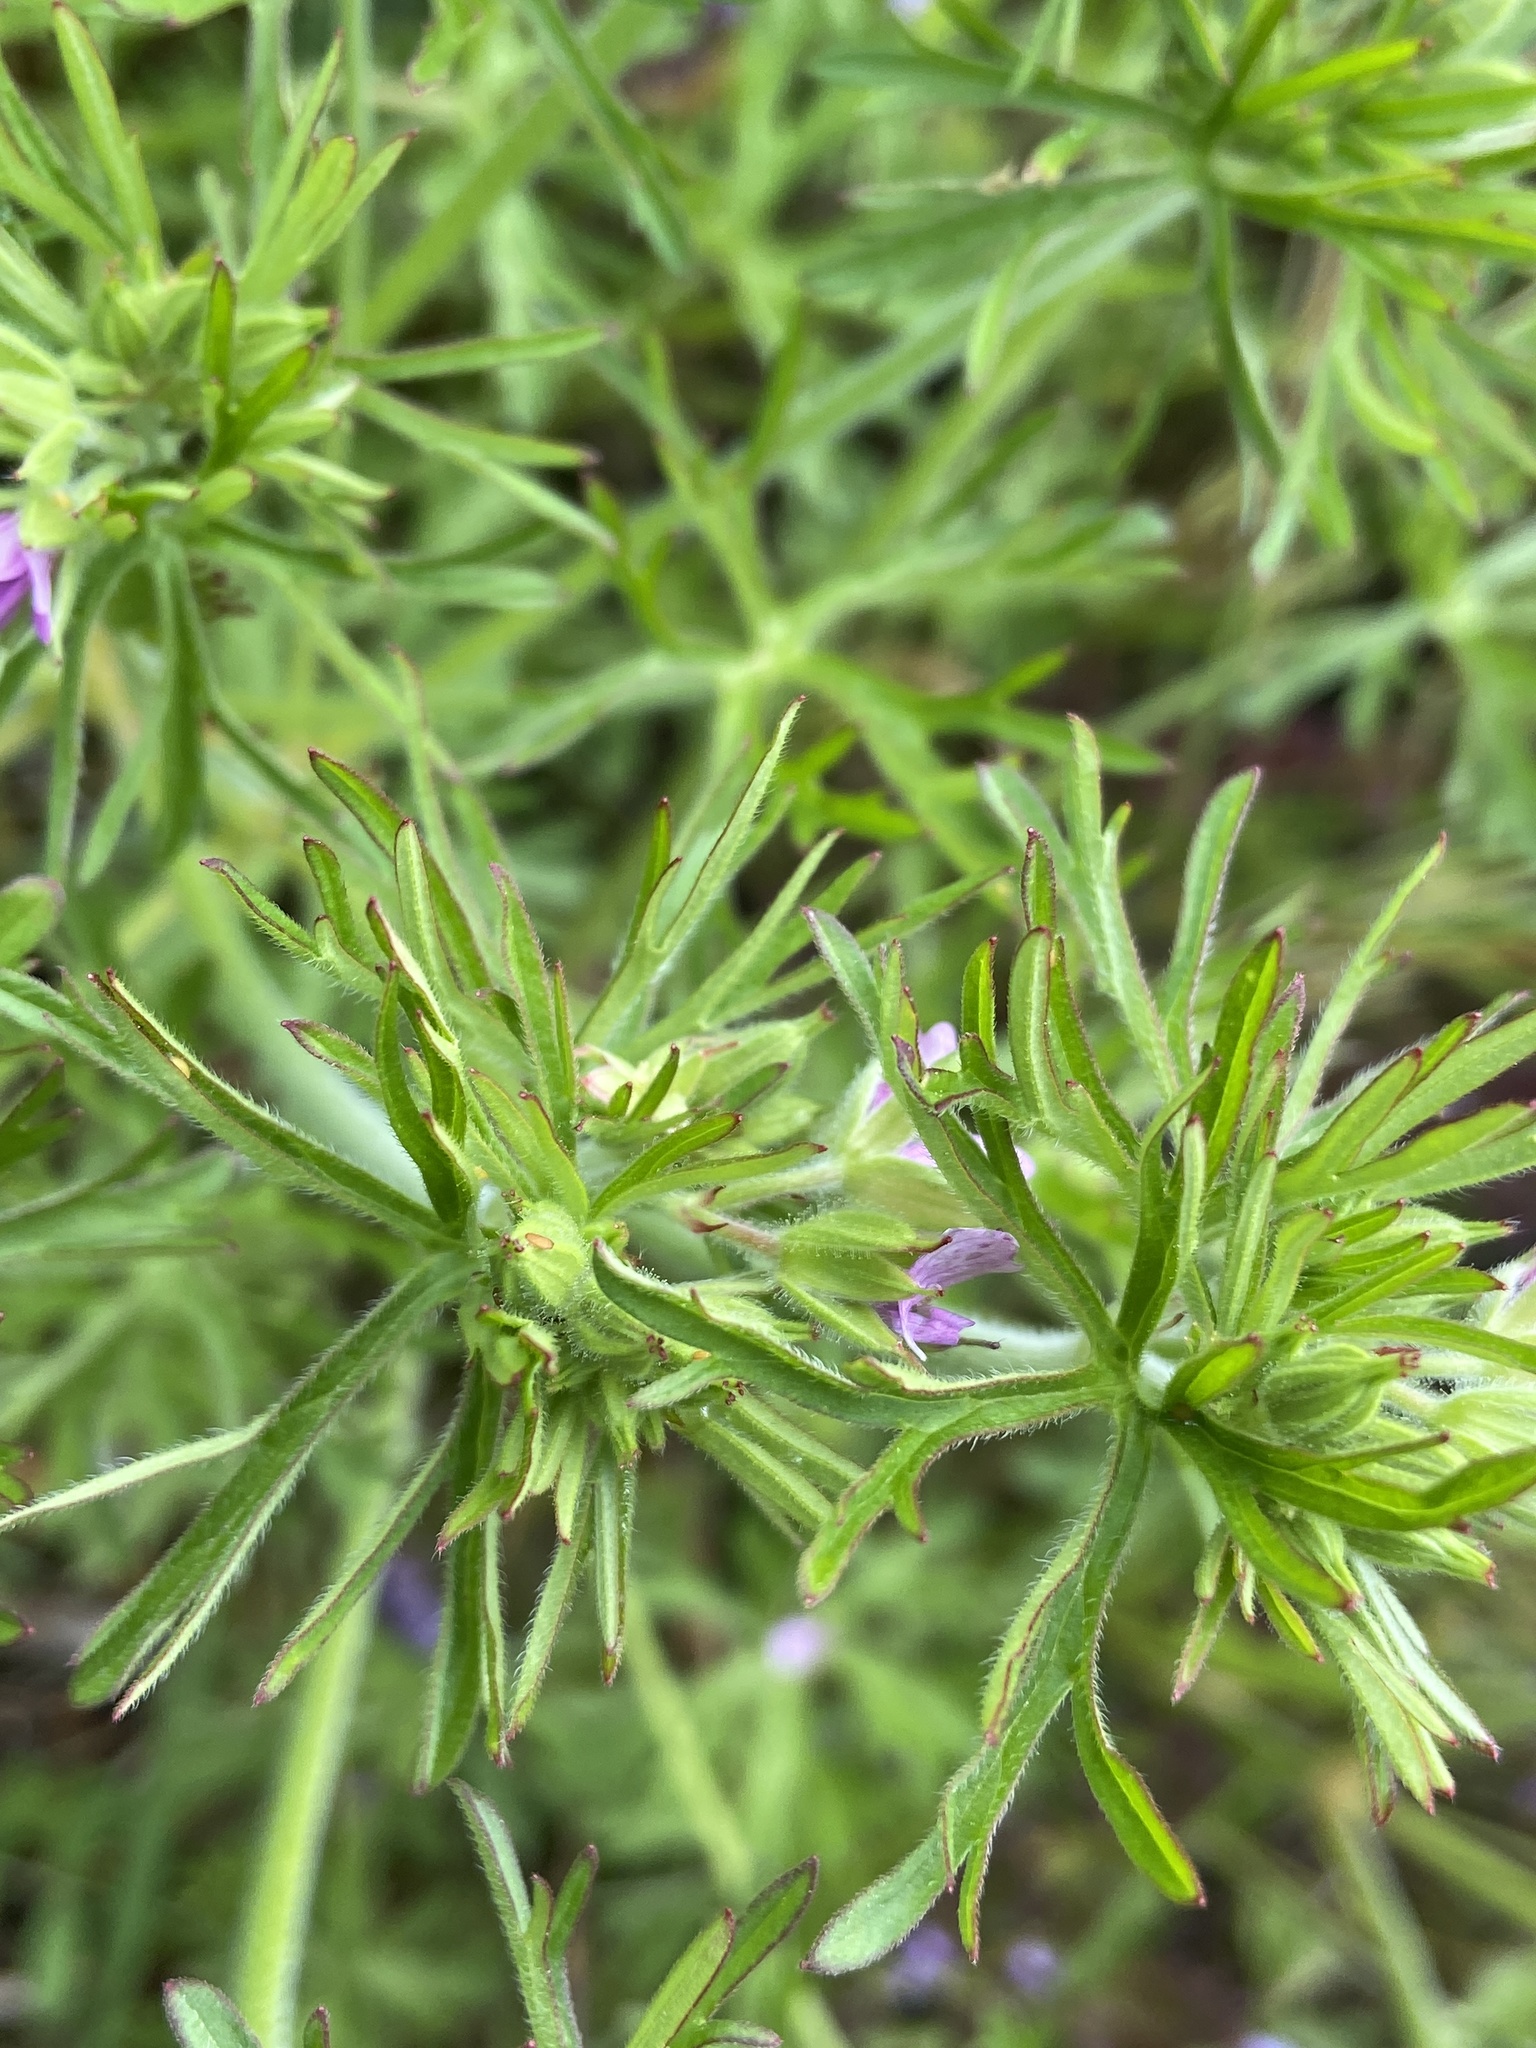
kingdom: Plantae
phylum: Tracheophyta
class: Magnoliopsida
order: Geraniales
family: Geraniaceae
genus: Geranium
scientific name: Geranium dissectum
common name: Cut-leaved crane's-bill
